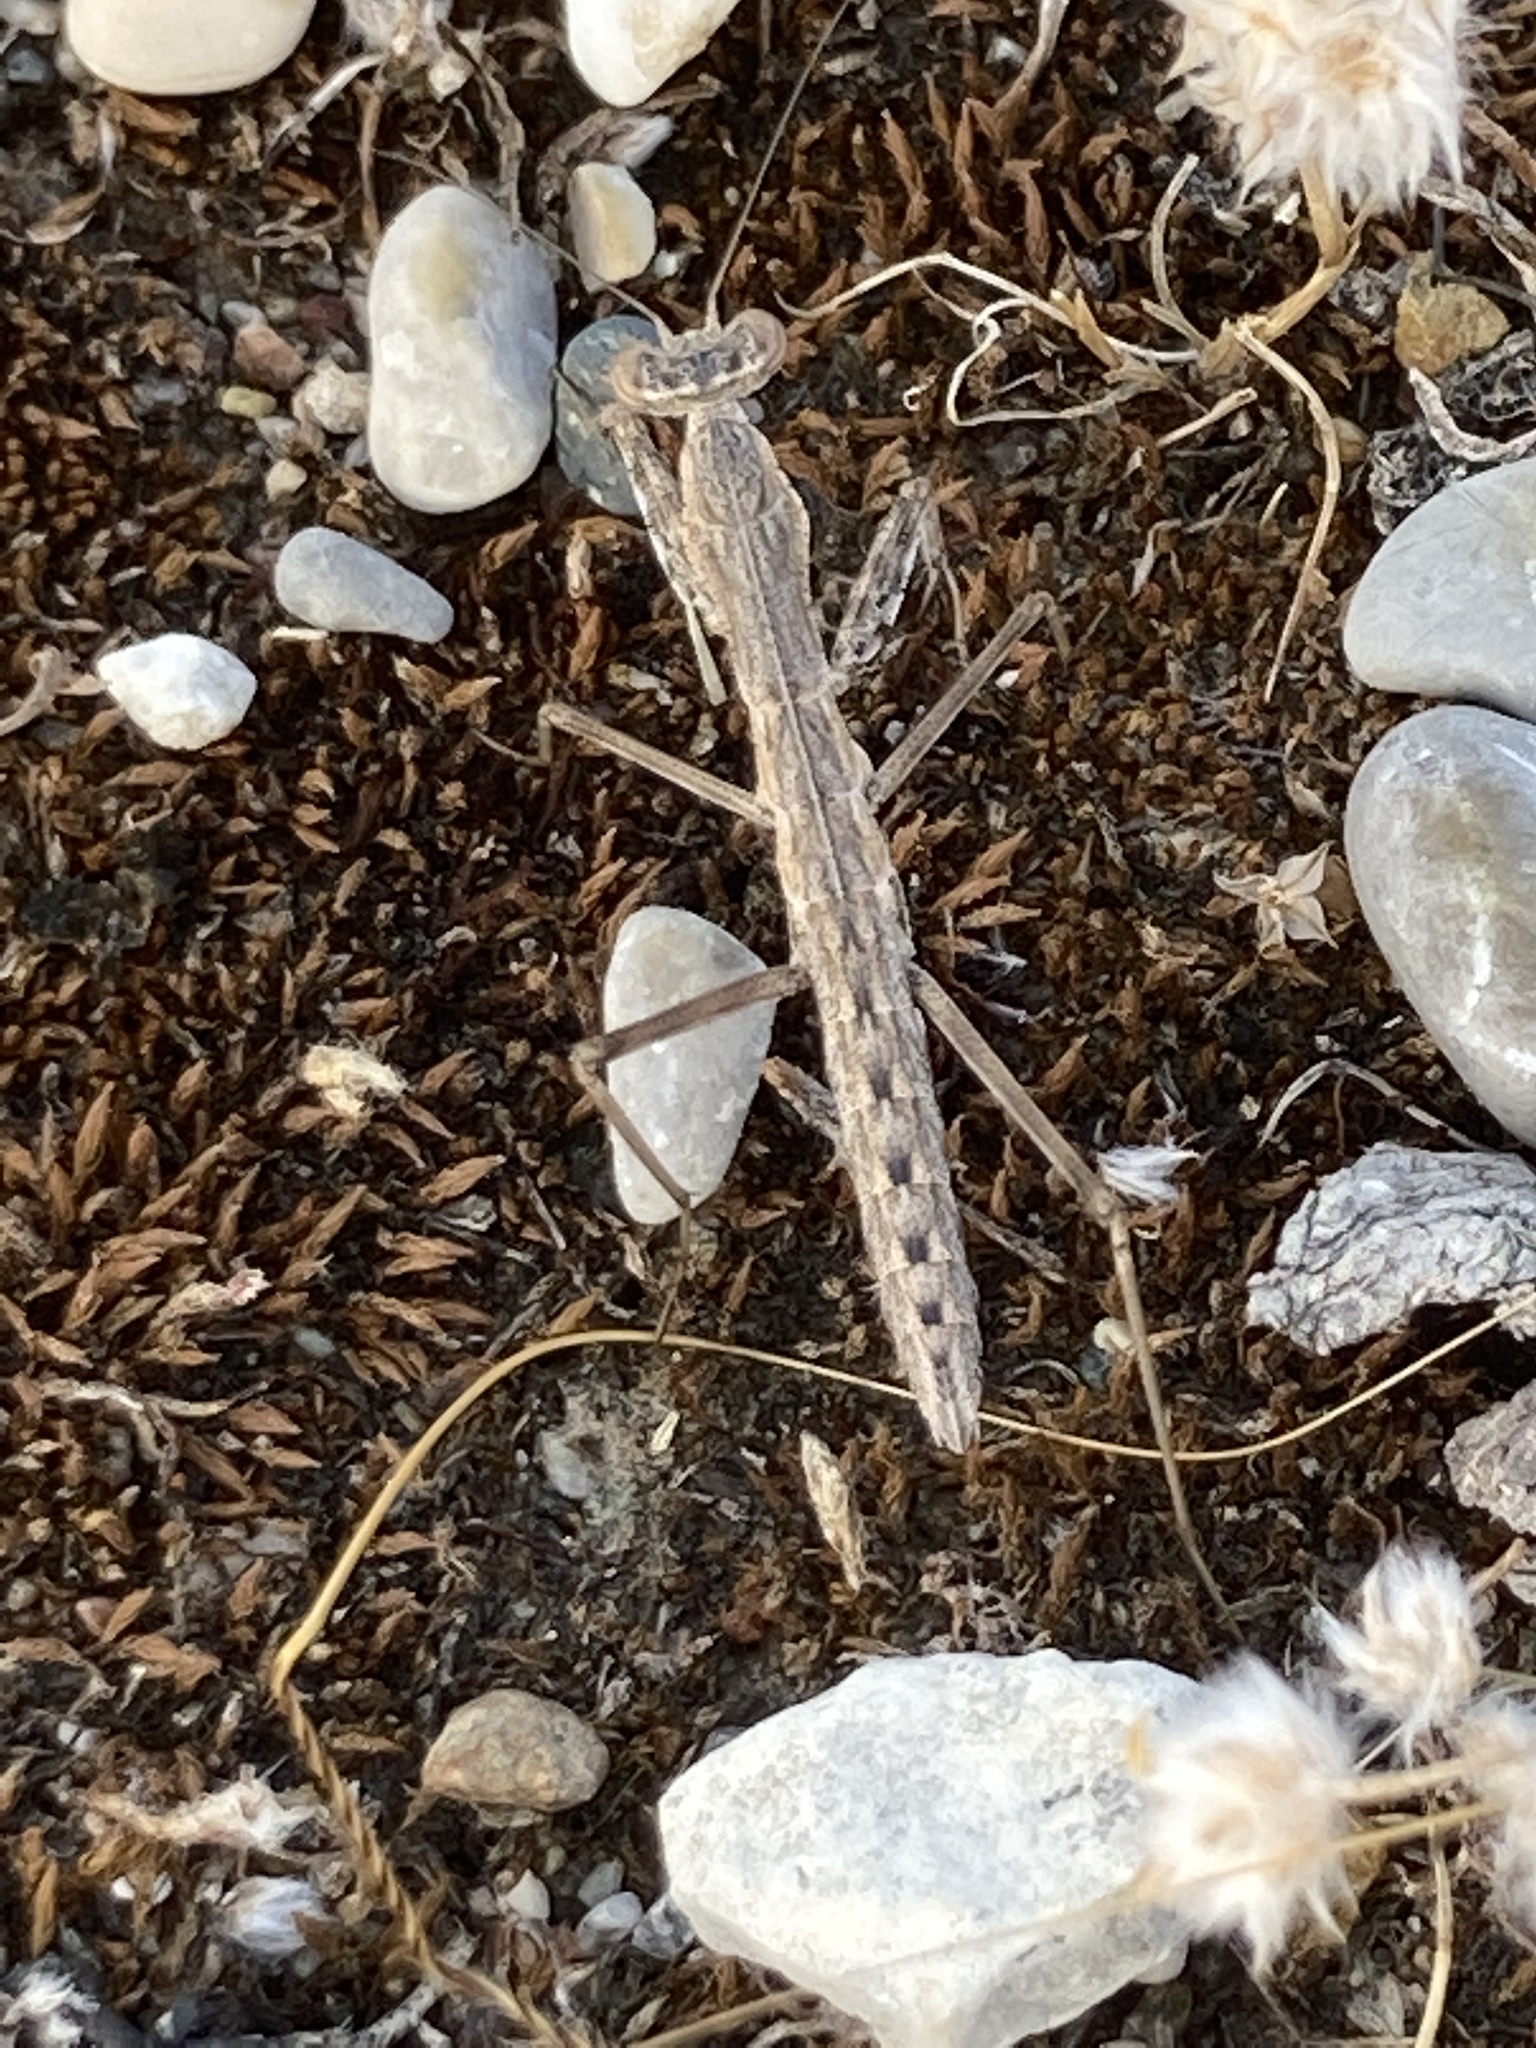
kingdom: Animalia
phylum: Arthropoda
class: Insecta
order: Mantodea
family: Rivetinidae
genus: Rivetina
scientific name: Rivetina balcanica
